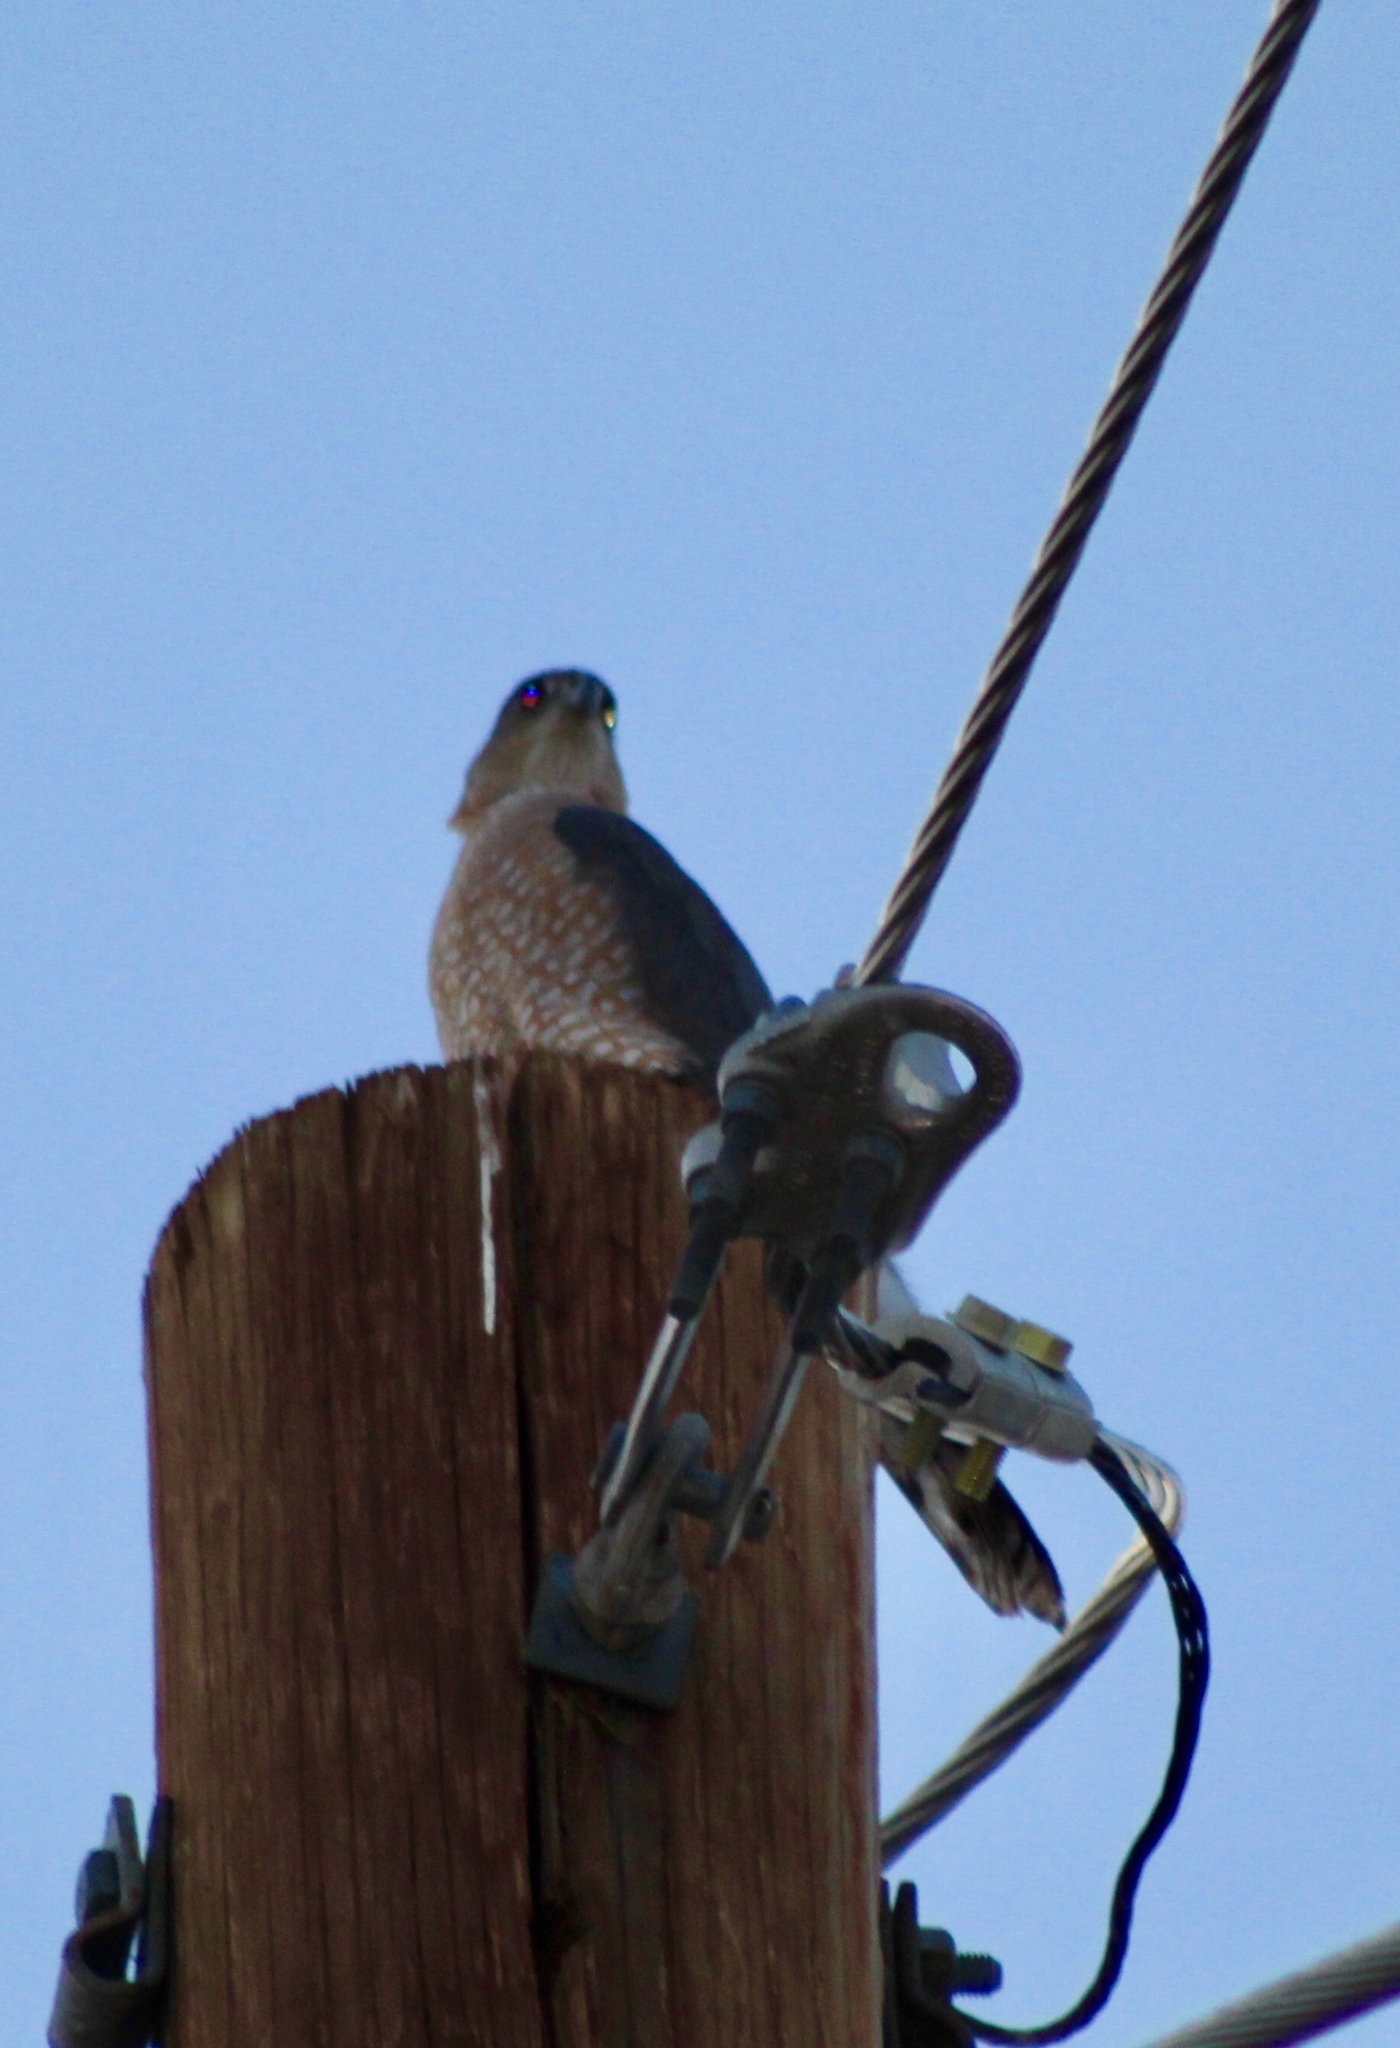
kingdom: Animalia
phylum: Chordata
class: Aves
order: Accipitriformes
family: Accipitridae
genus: Accipiter
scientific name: Accipiter cooperii
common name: Cooper's hawk
